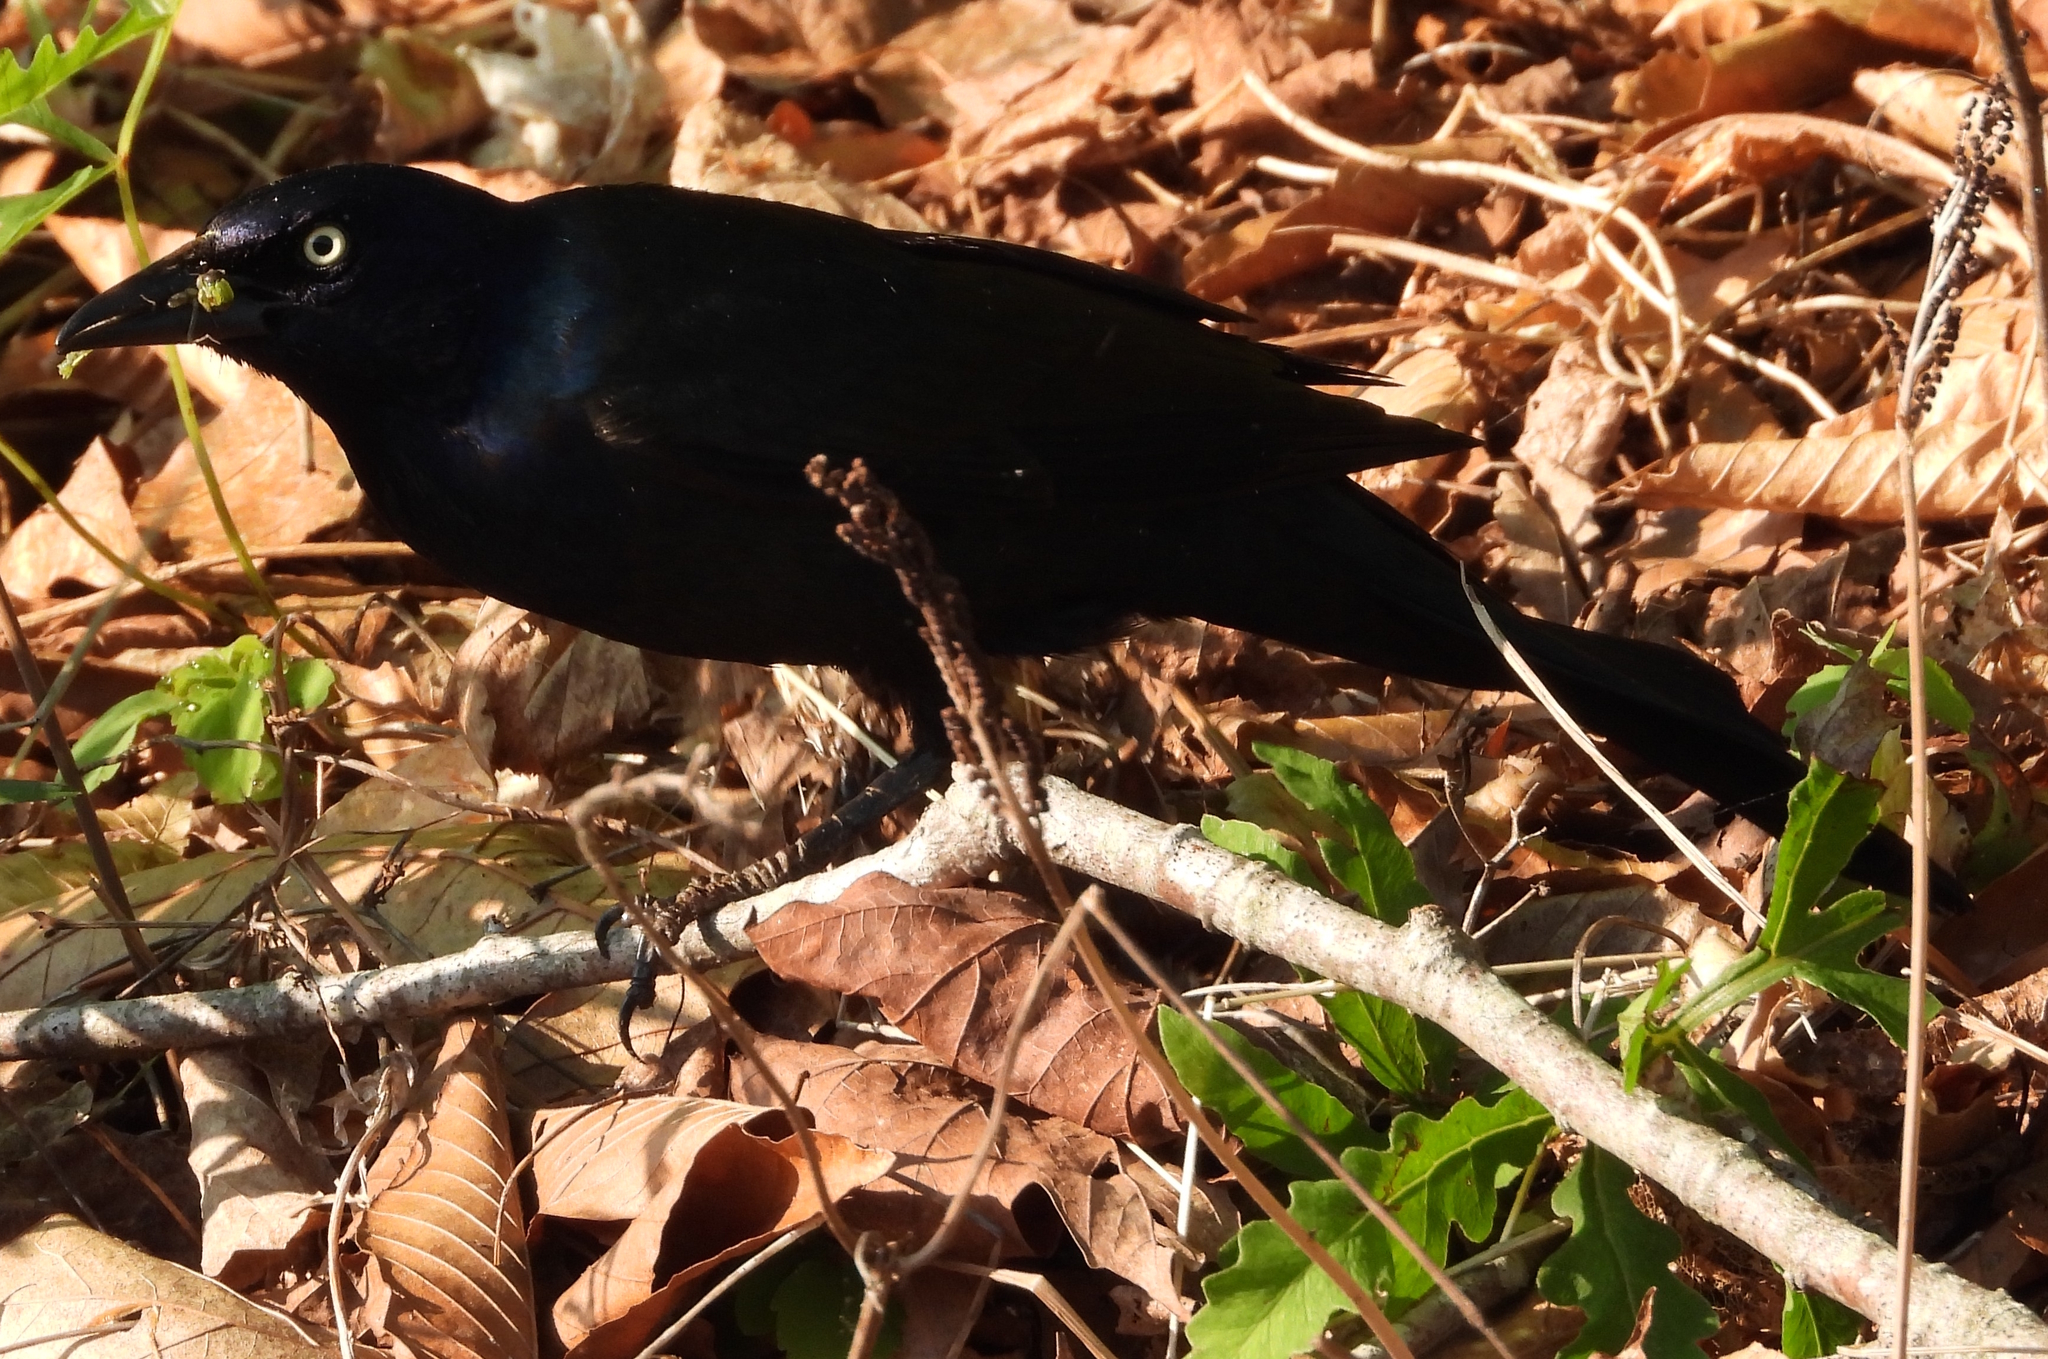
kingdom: Animalia
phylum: Chordata
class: Aves
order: Passeriformes
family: Icteridae
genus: Quiscalus
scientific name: Quiscalus quiscula
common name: Common grackle
